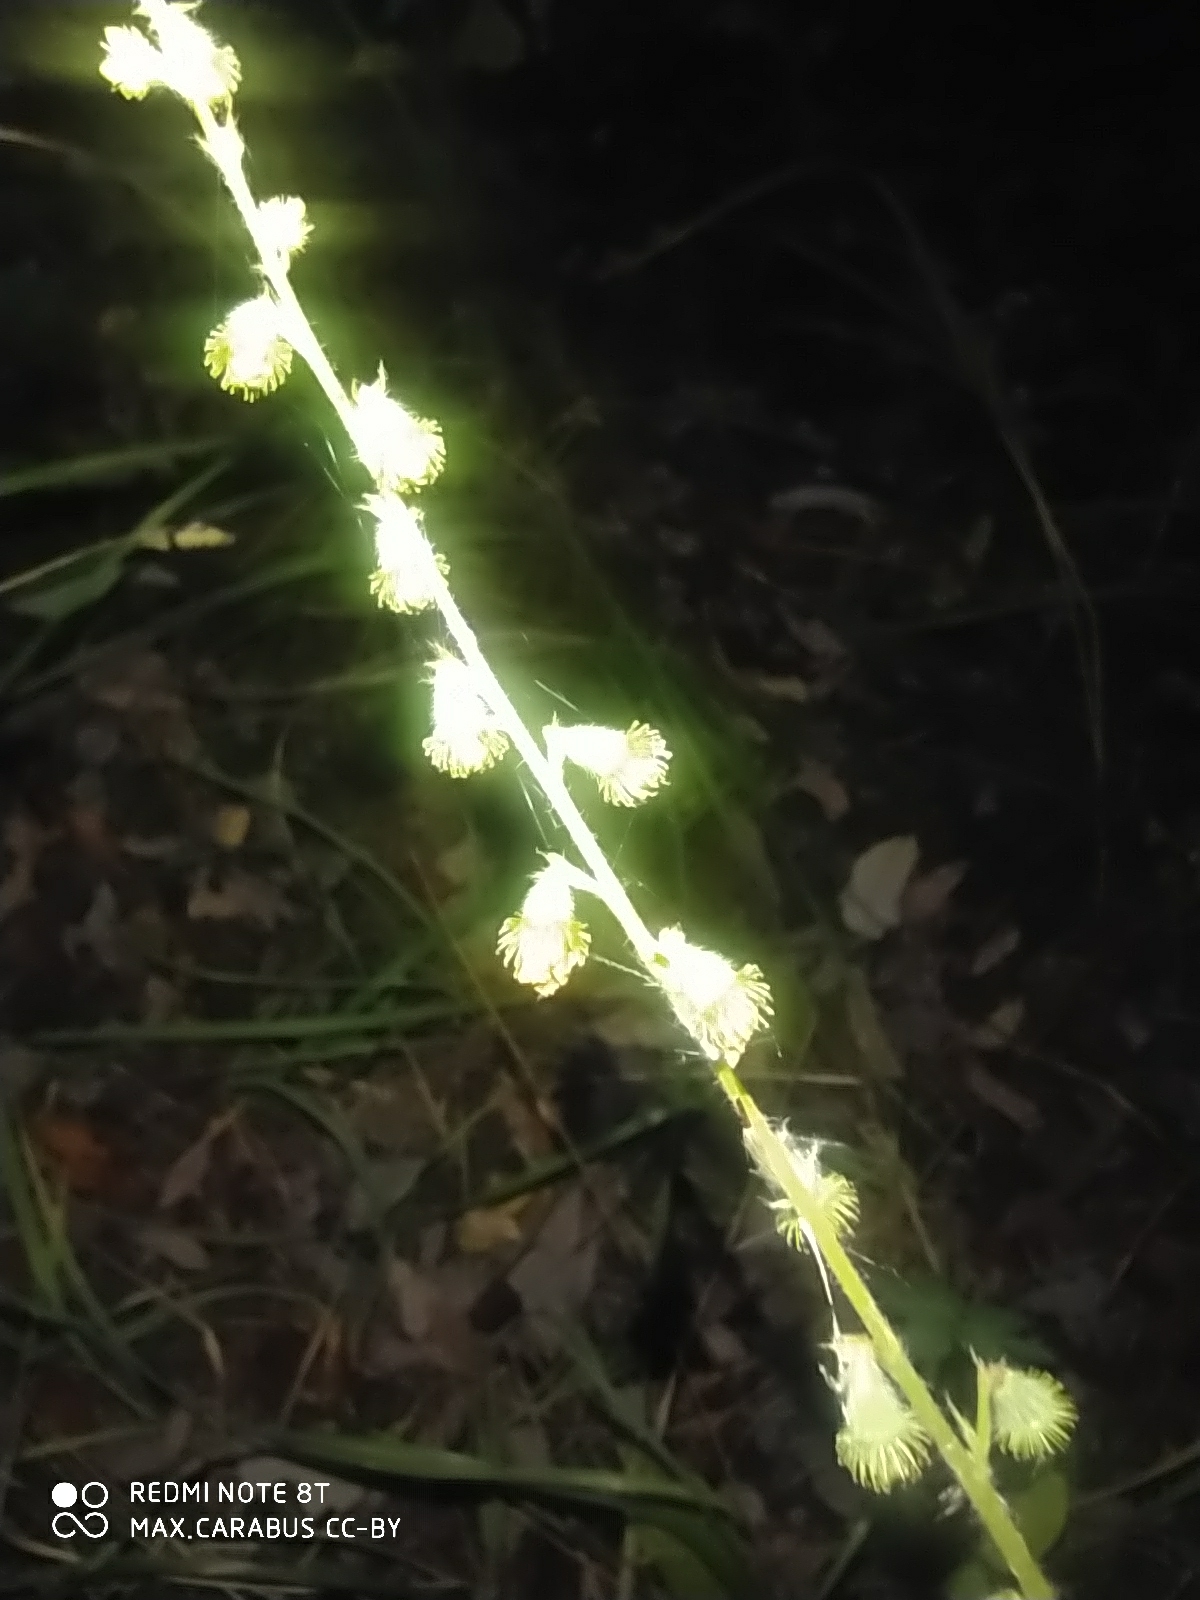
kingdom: Plantae
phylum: Tracheophyta
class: Magnoliopsida
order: Rosales
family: Rosaceae
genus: Agrimonia
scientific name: Agrimonia eupatoria
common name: Agrimony
